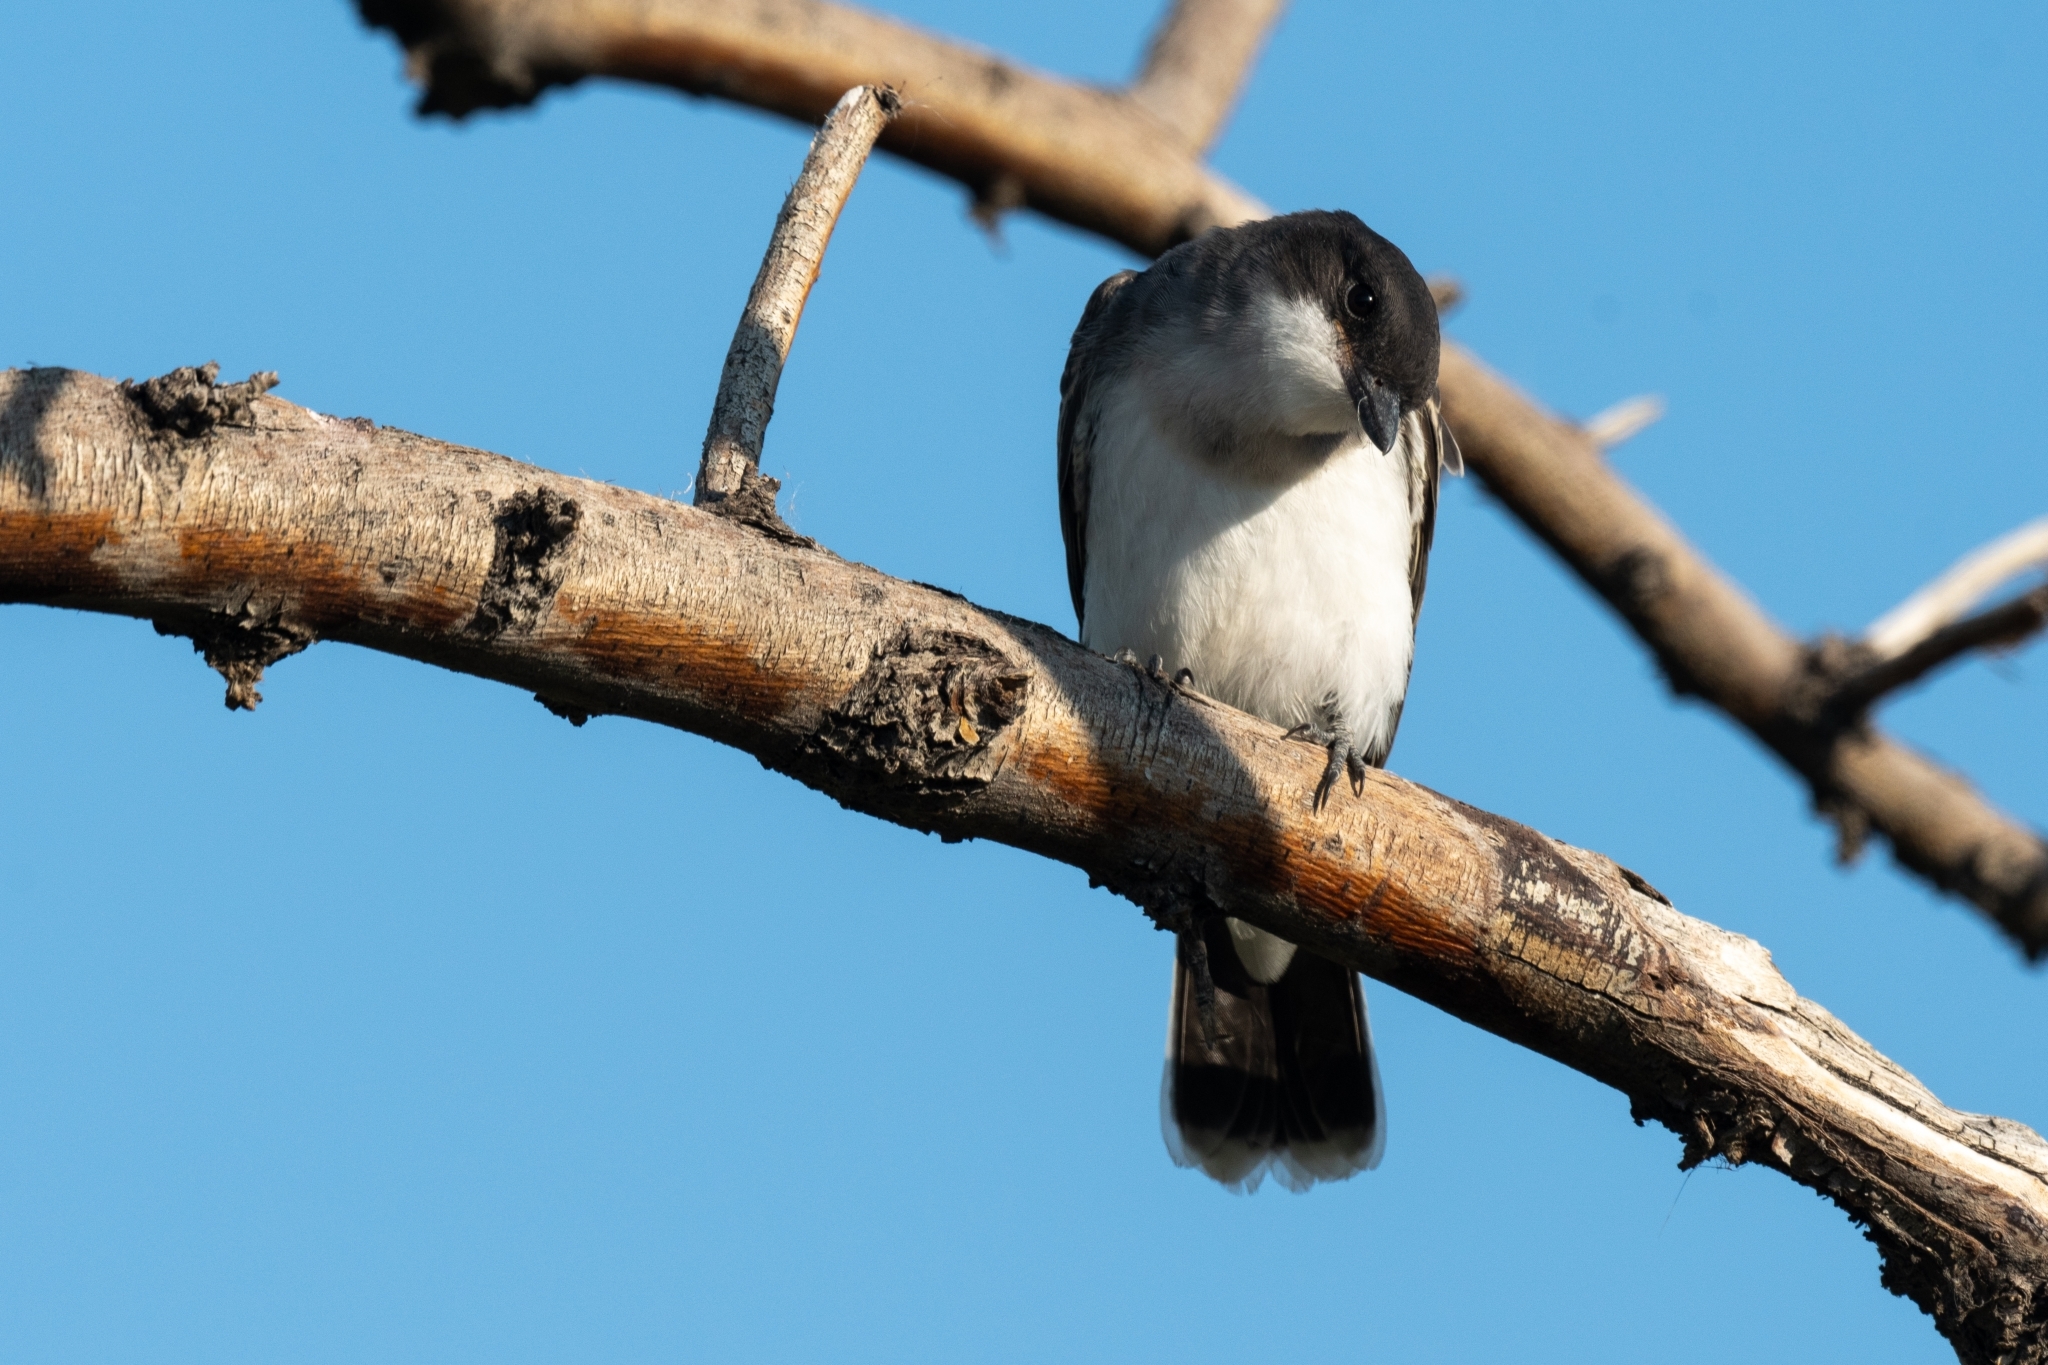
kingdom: Animalia
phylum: Chordata
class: Aves
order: Passeriformes
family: Tyrannidae
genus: Tyrannus
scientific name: Tyrannus tyrannus
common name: Eastern kingbird
